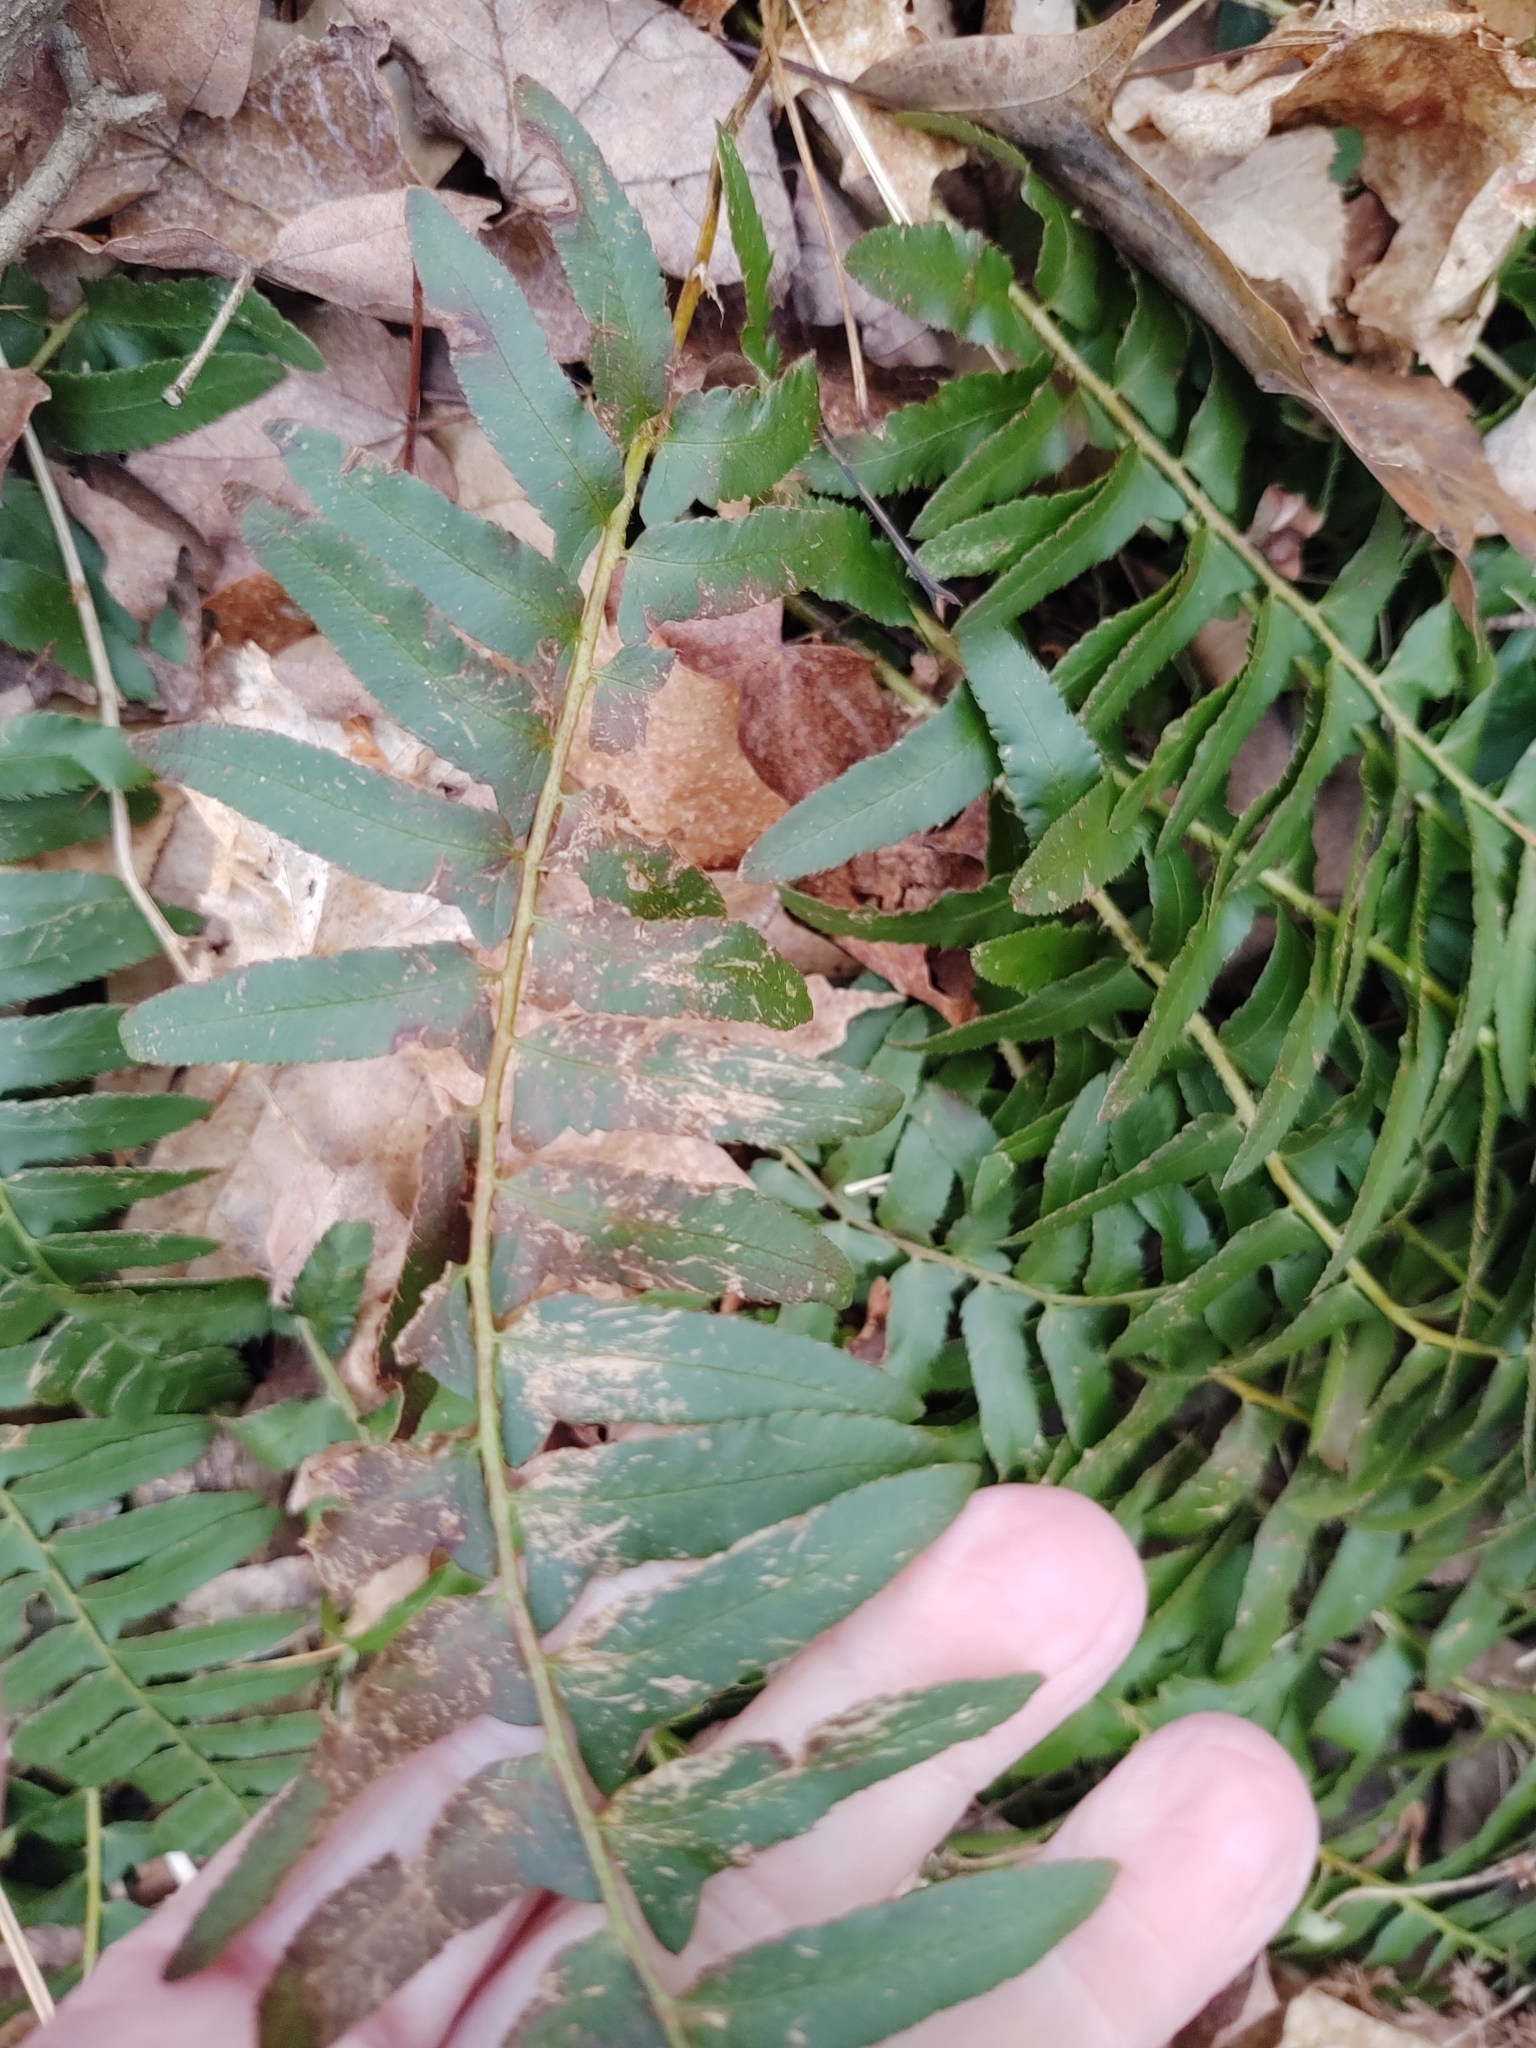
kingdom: Plantae
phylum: Tracheophyta
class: Polypodiopsida
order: Polypodiales
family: Dryopteridaceae
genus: Polystichum
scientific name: Polystichum acrostichoides
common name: Christmas fern
